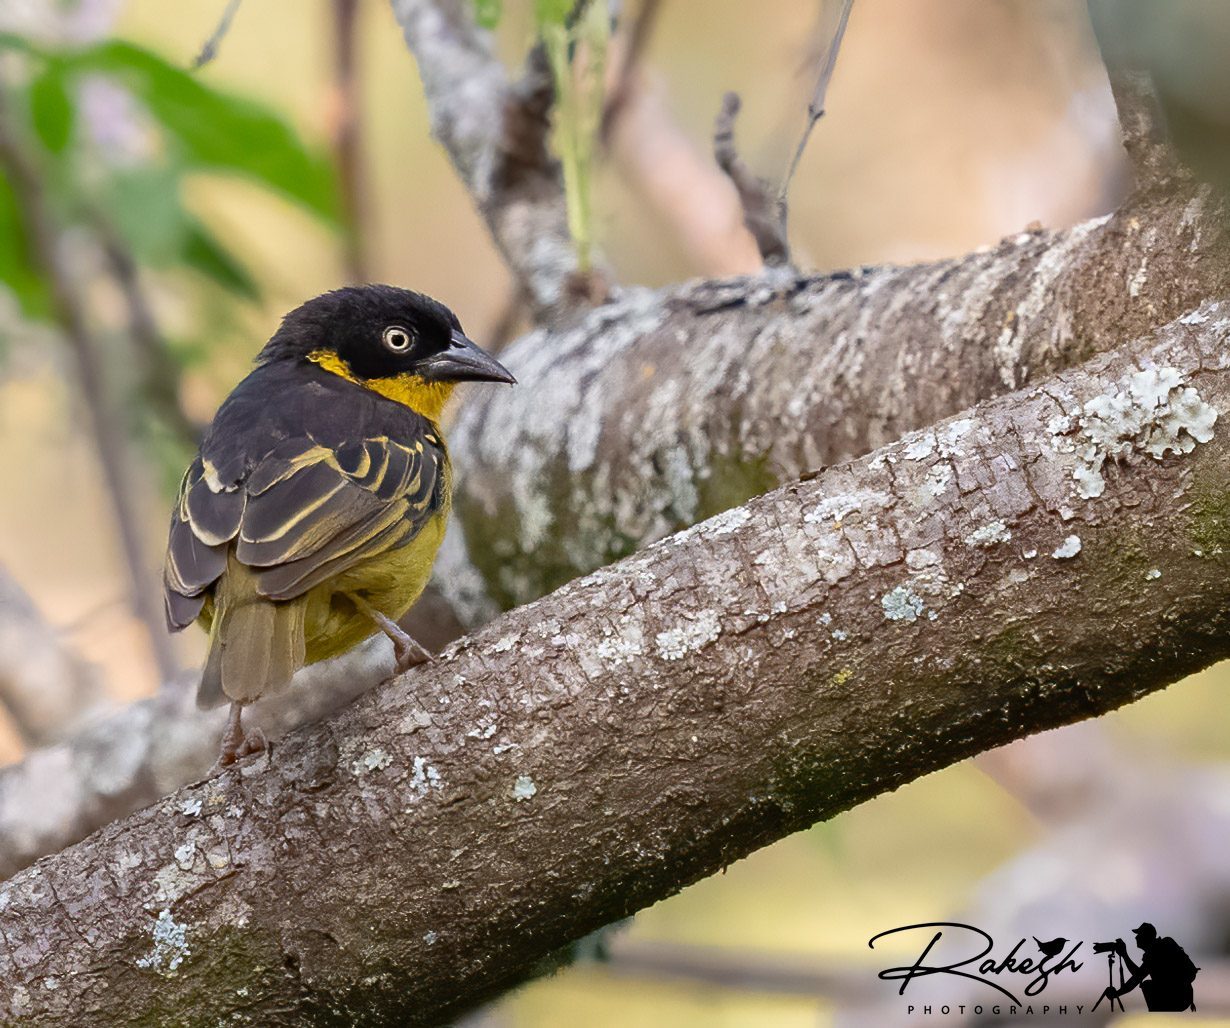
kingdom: Animalia
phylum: Chordata
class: Aves
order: Passeriformes
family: Ploceidae
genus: Ploceus
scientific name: Ploceus baglafecht
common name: Baglafecht weaver
